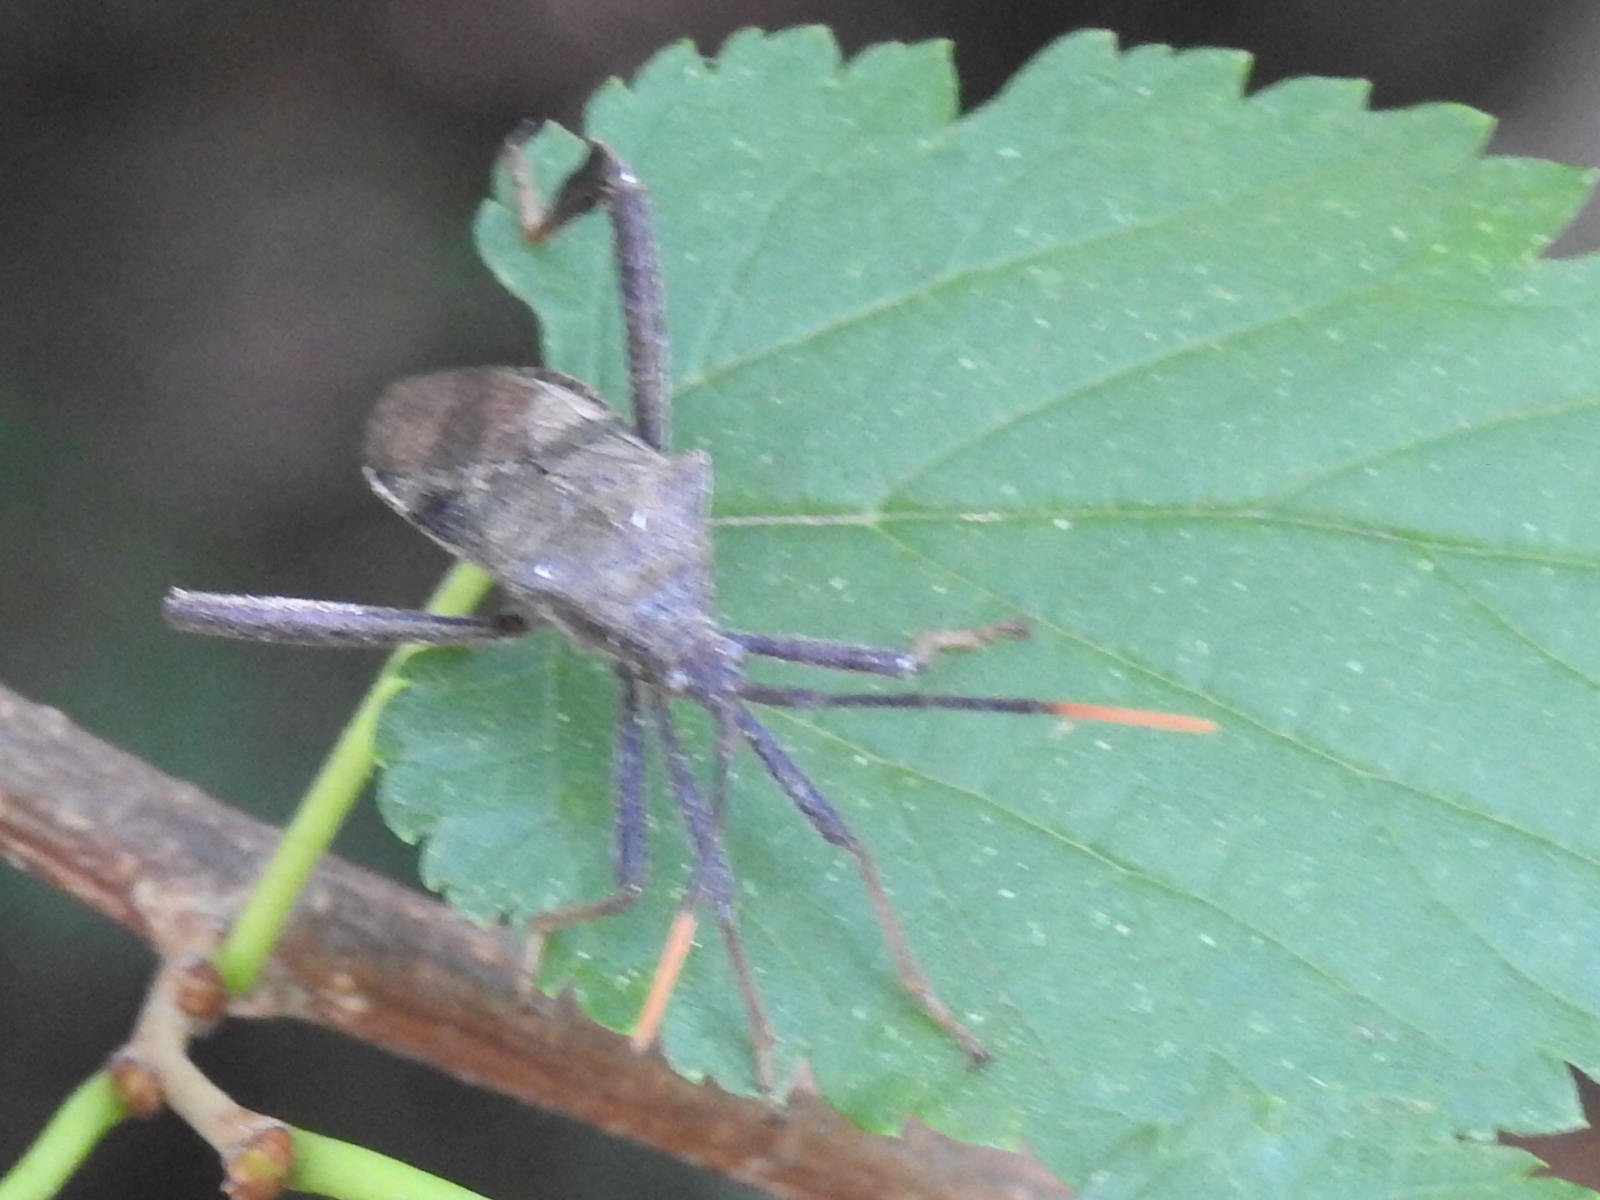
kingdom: Animalia
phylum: Arthropoda
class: Insecta
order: Hemiptera
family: Coreidae
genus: Acanthocephala
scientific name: Acanthocephala terminalis
